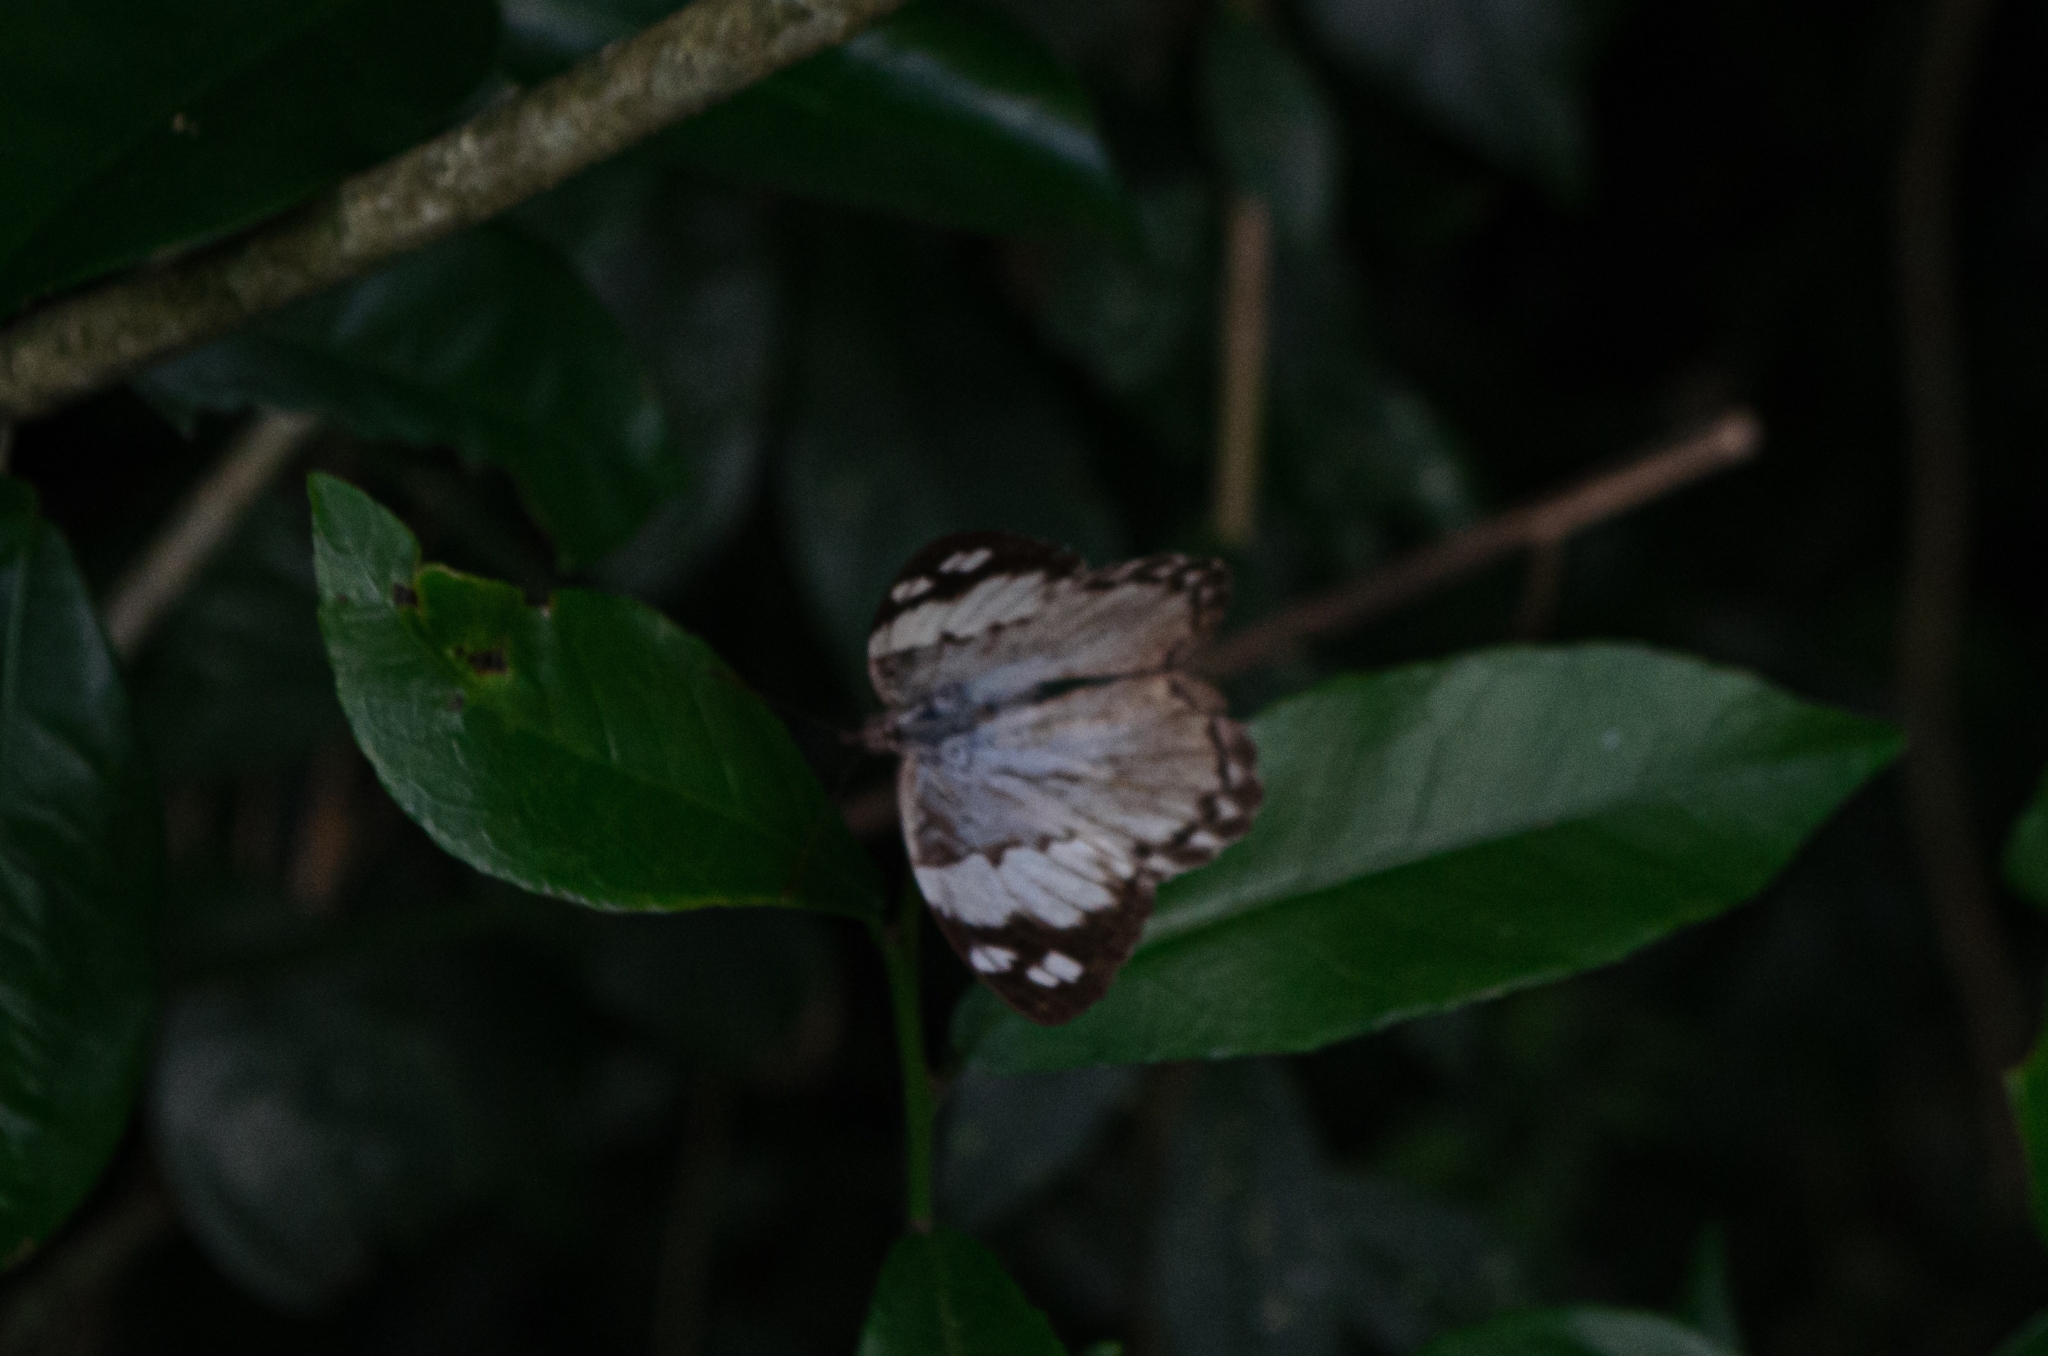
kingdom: Animalia
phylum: Arthropoda
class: Insecta
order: Lepidoptera
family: Nymphalidae
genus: Eunica
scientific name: Eunica eburnea
